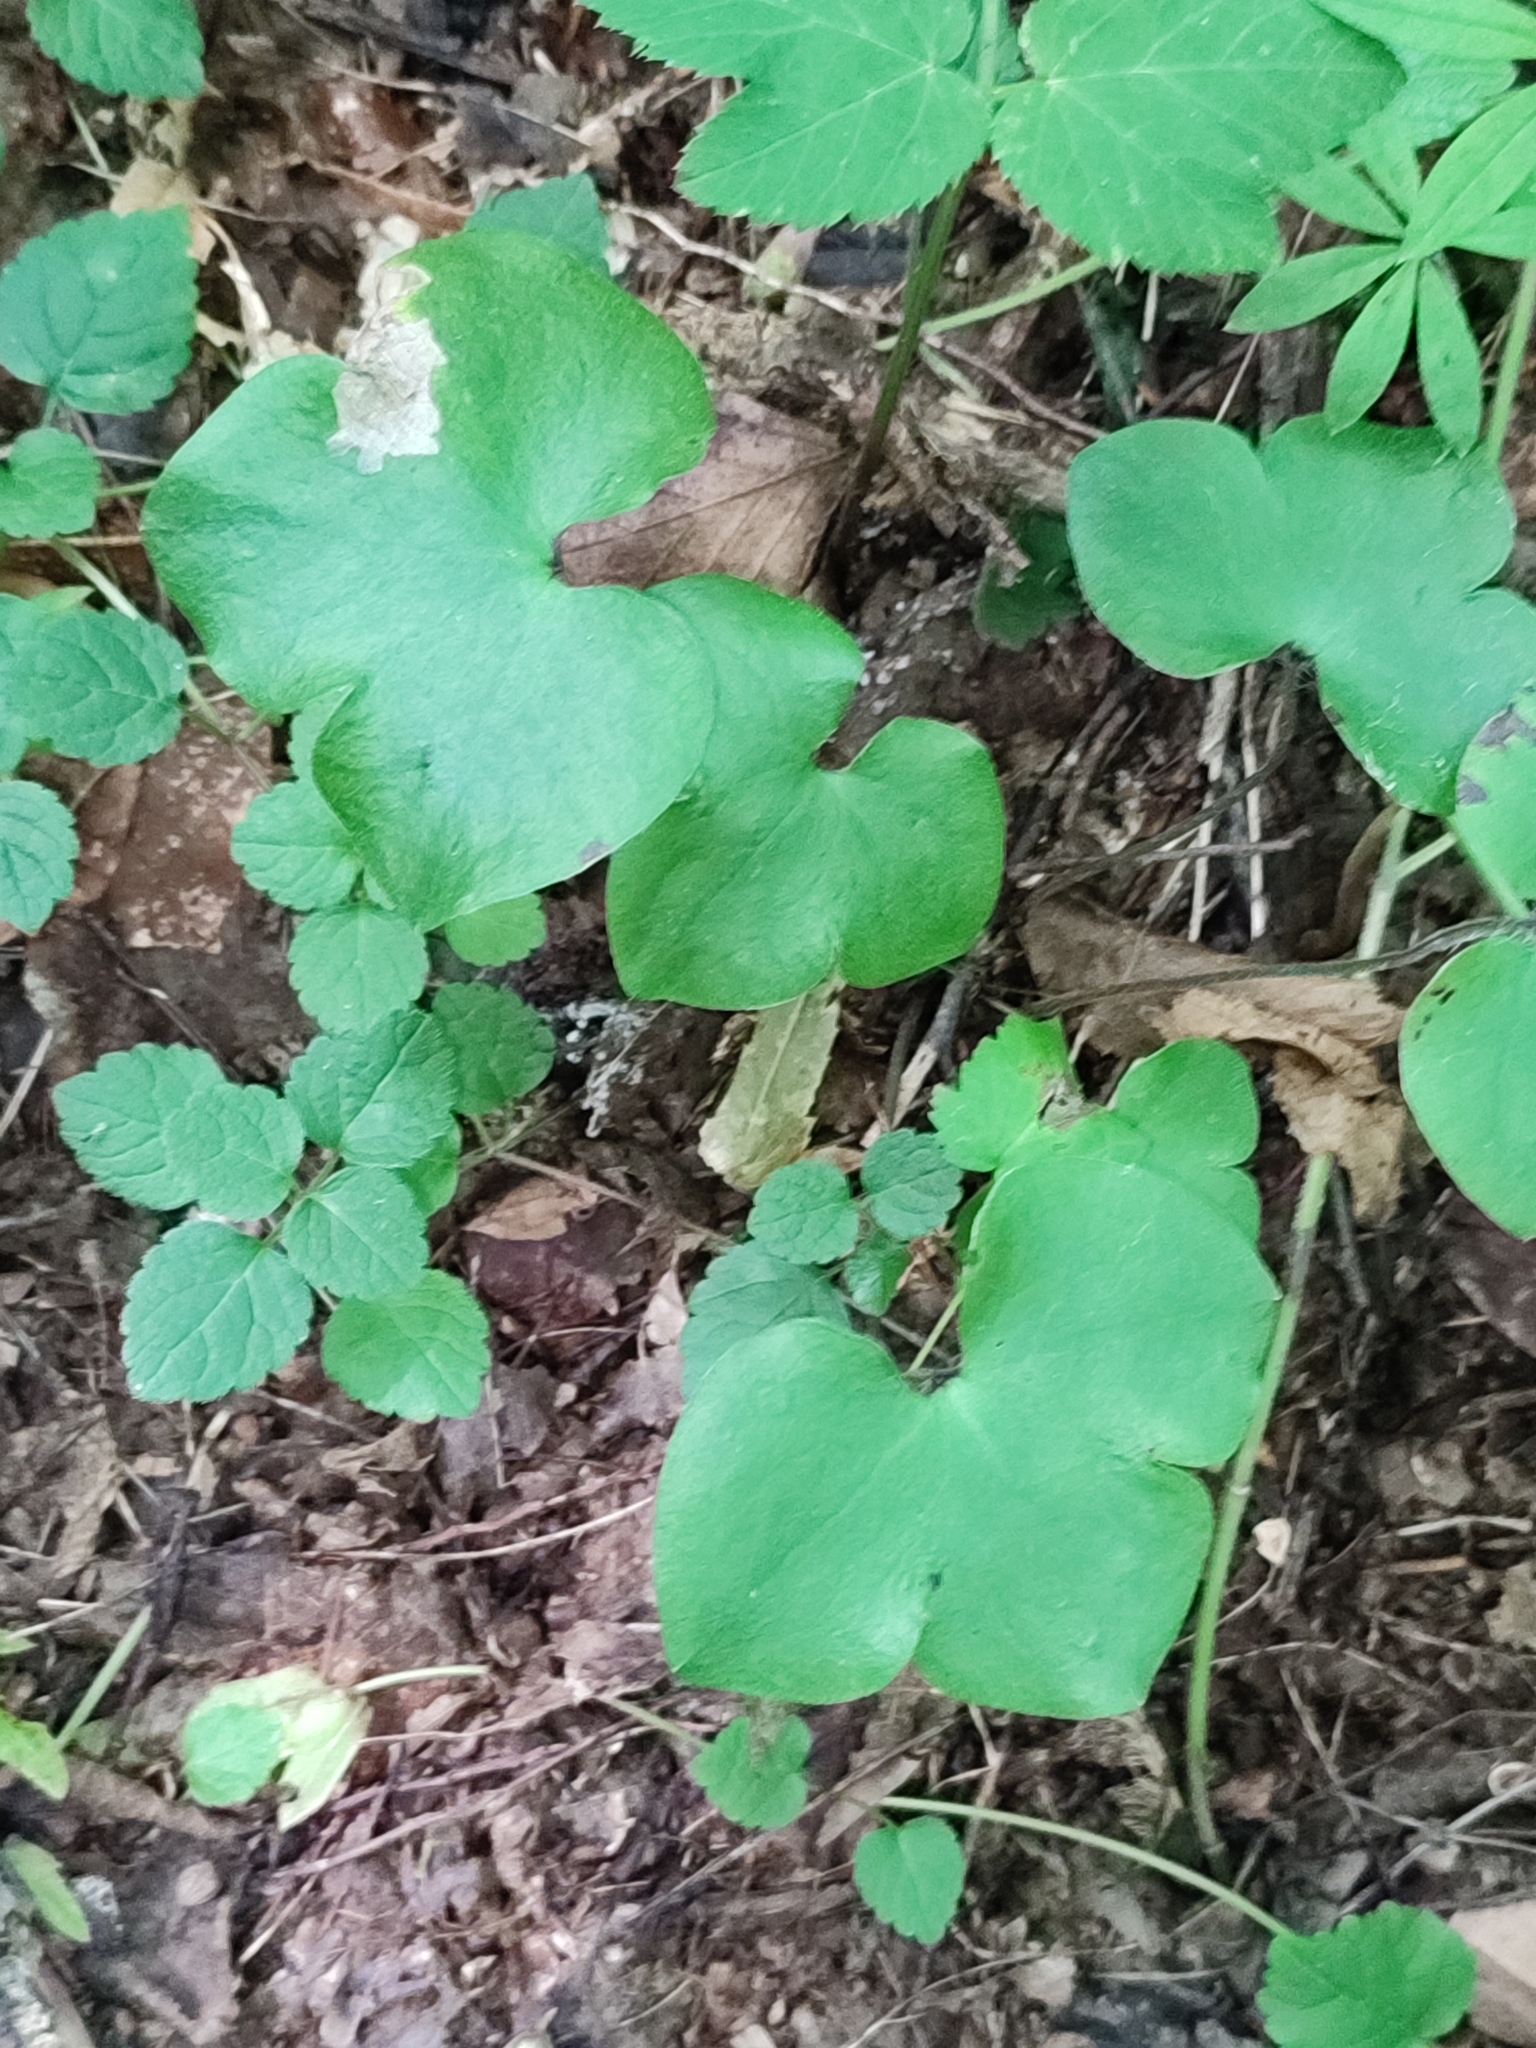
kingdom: Plantae
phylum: Tracheophyta
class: Magnoliopsida
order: Ranunculales
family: Ranunculaceae
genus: Hepatica
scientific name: Hepatica nobilis
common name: Liverleaf
